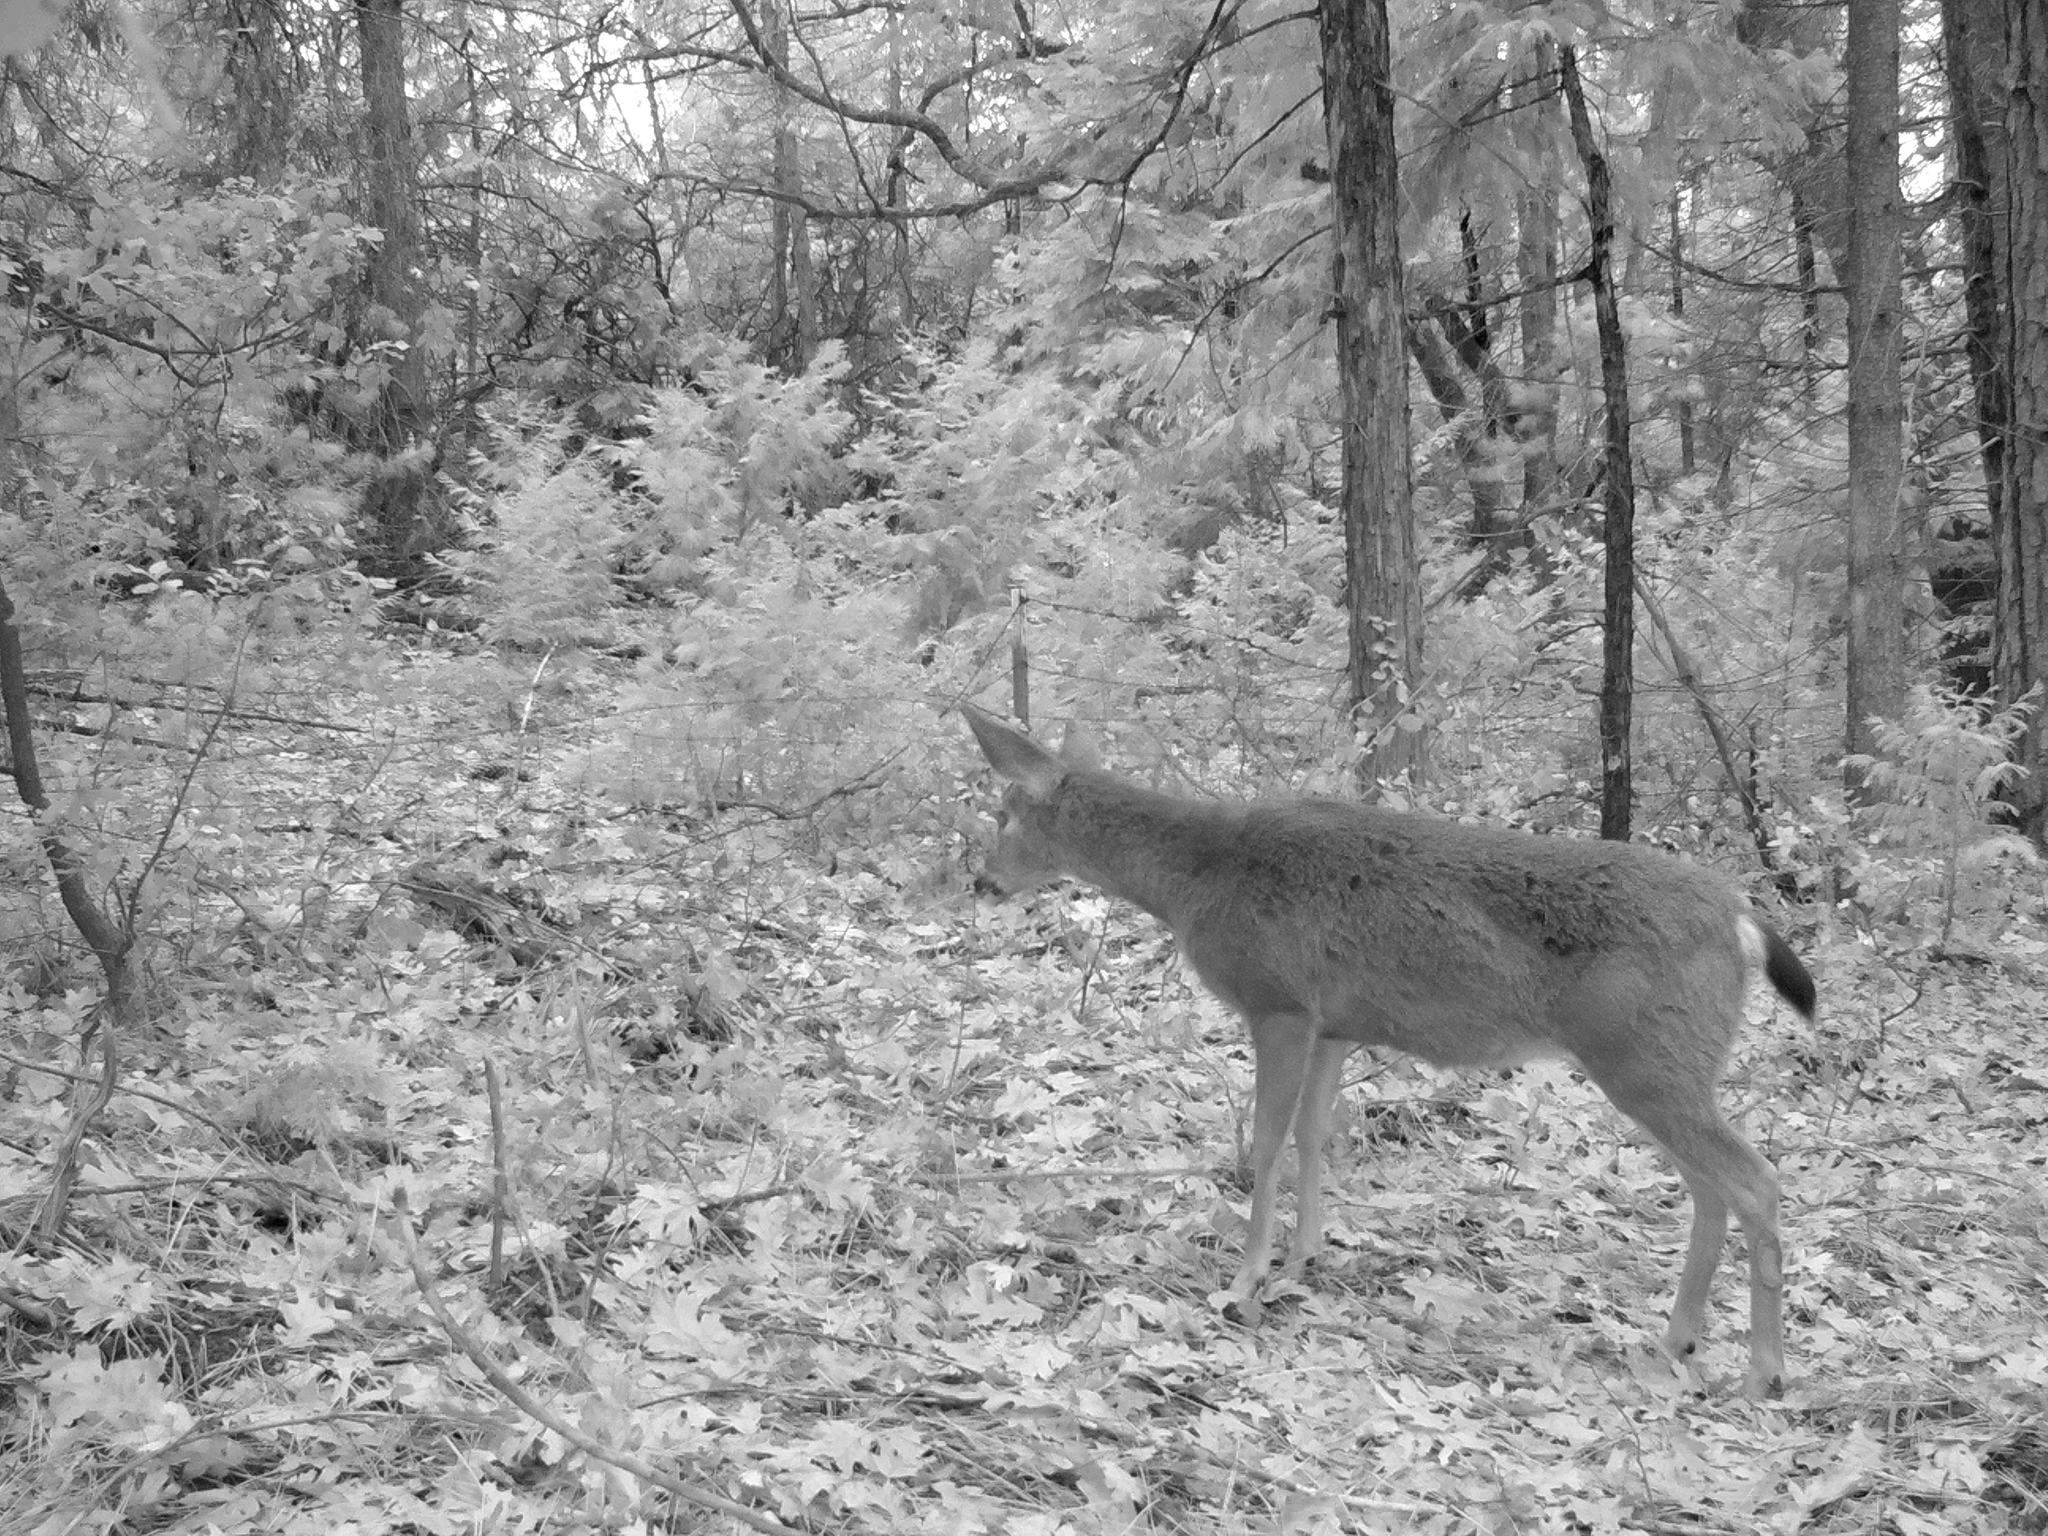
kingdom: Animalia
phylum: Chordata
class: Mammalia
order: Artiodactyla
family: Cervidae
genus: Odocoileus
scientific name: Odocoileus hemionus
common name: Mule deer
